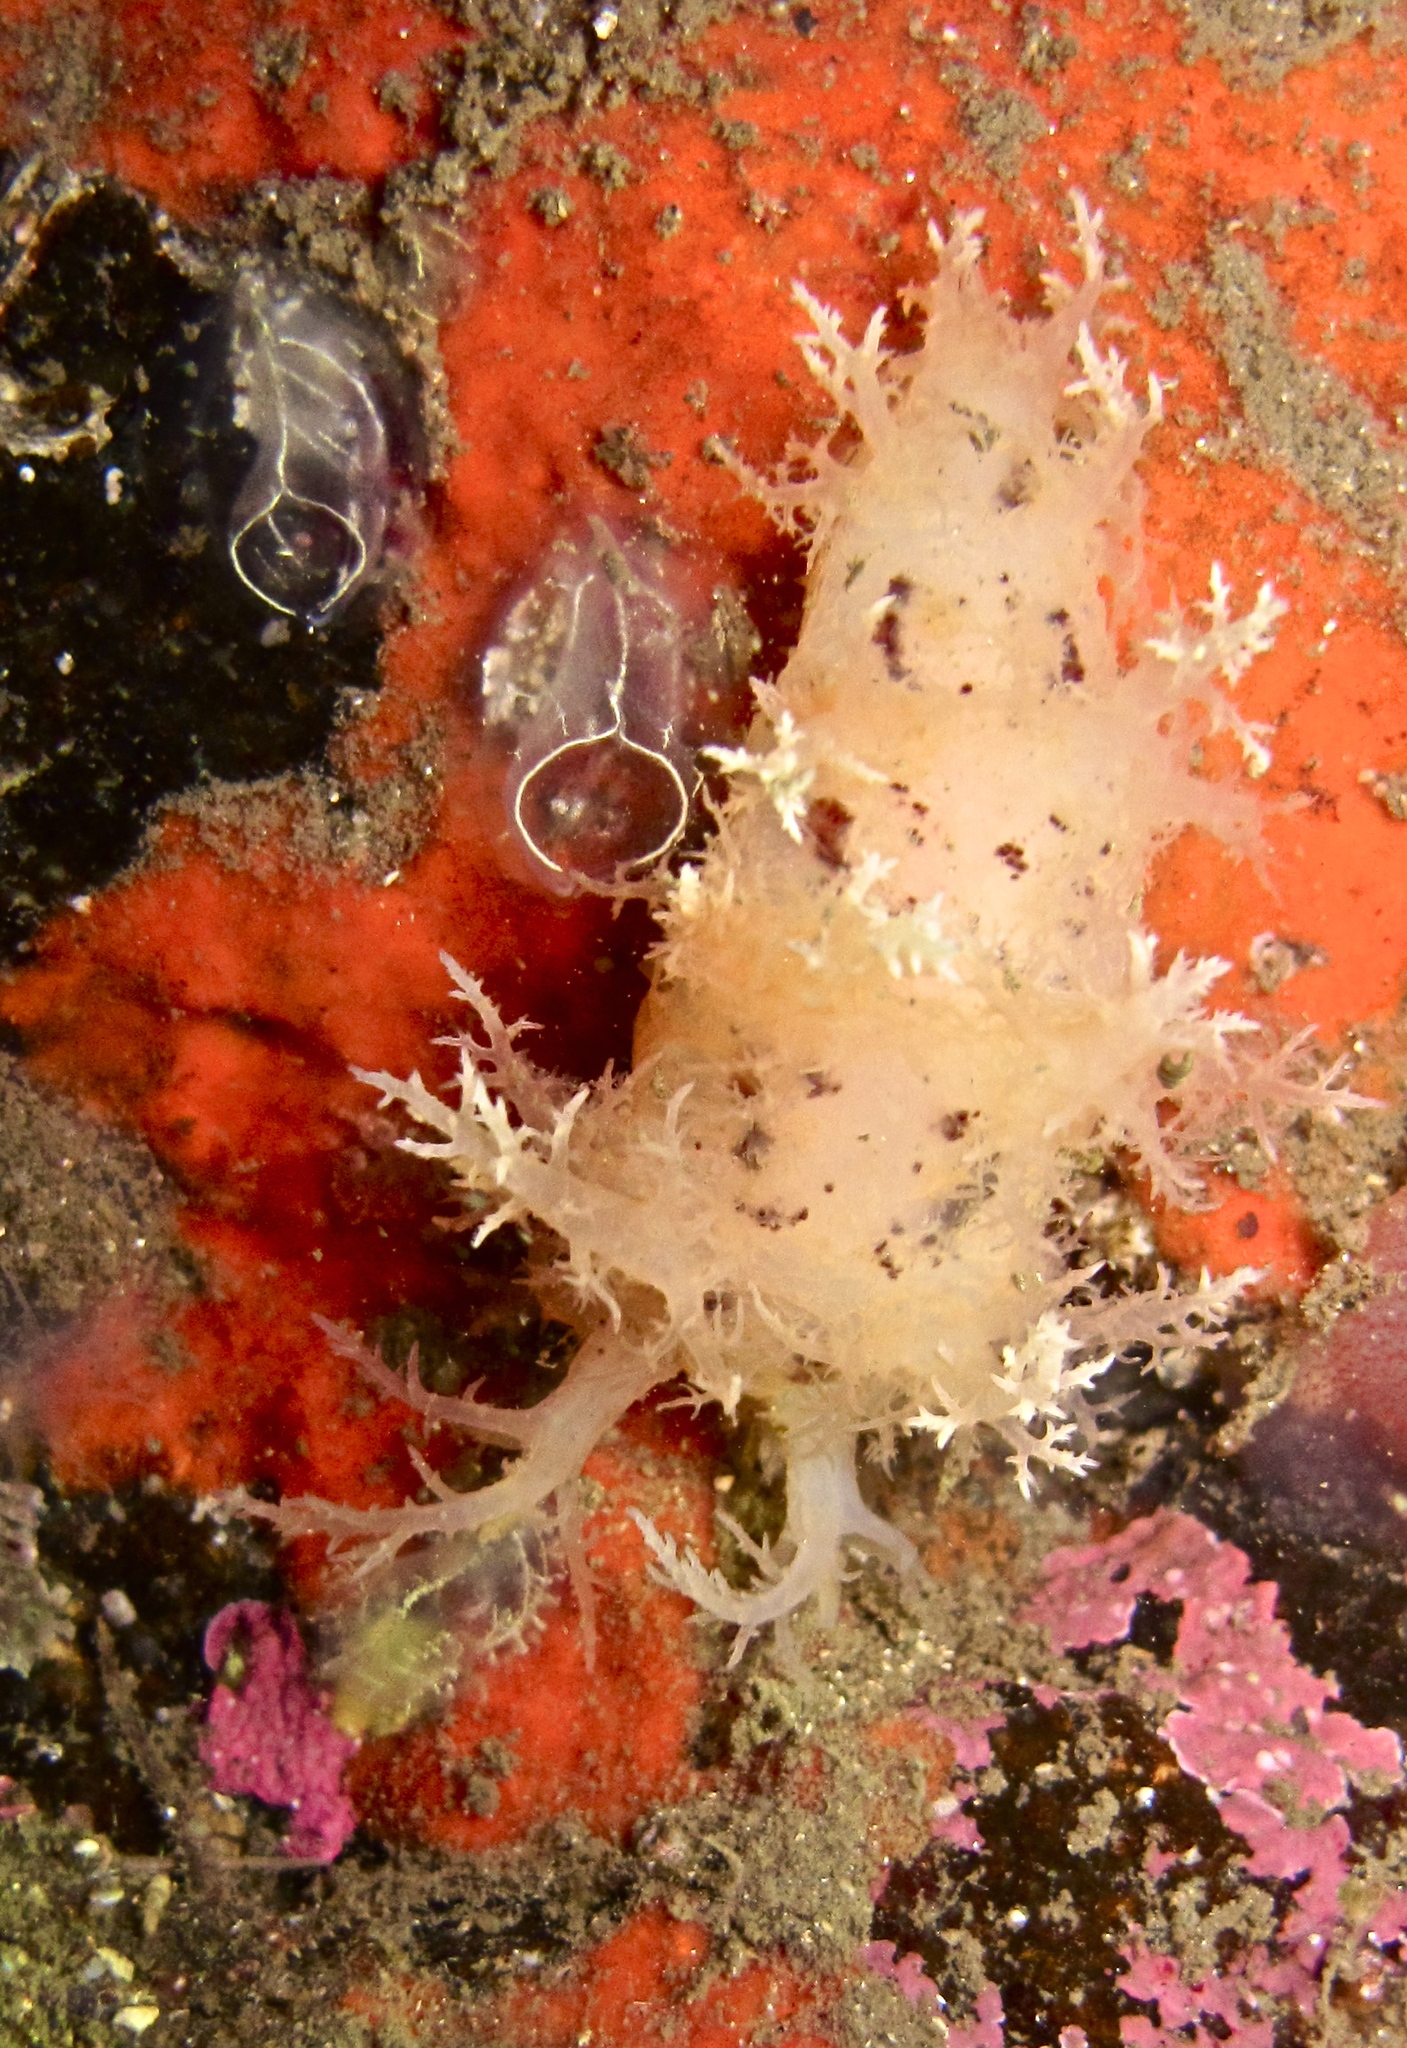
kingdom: Animalia
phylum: Mollusca
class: Gastropoda
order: Nudibranchia
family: Dendronotidae
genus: Dendronotus
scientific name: Dendronotus frondosus
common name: Bushy-backed nudibranch
